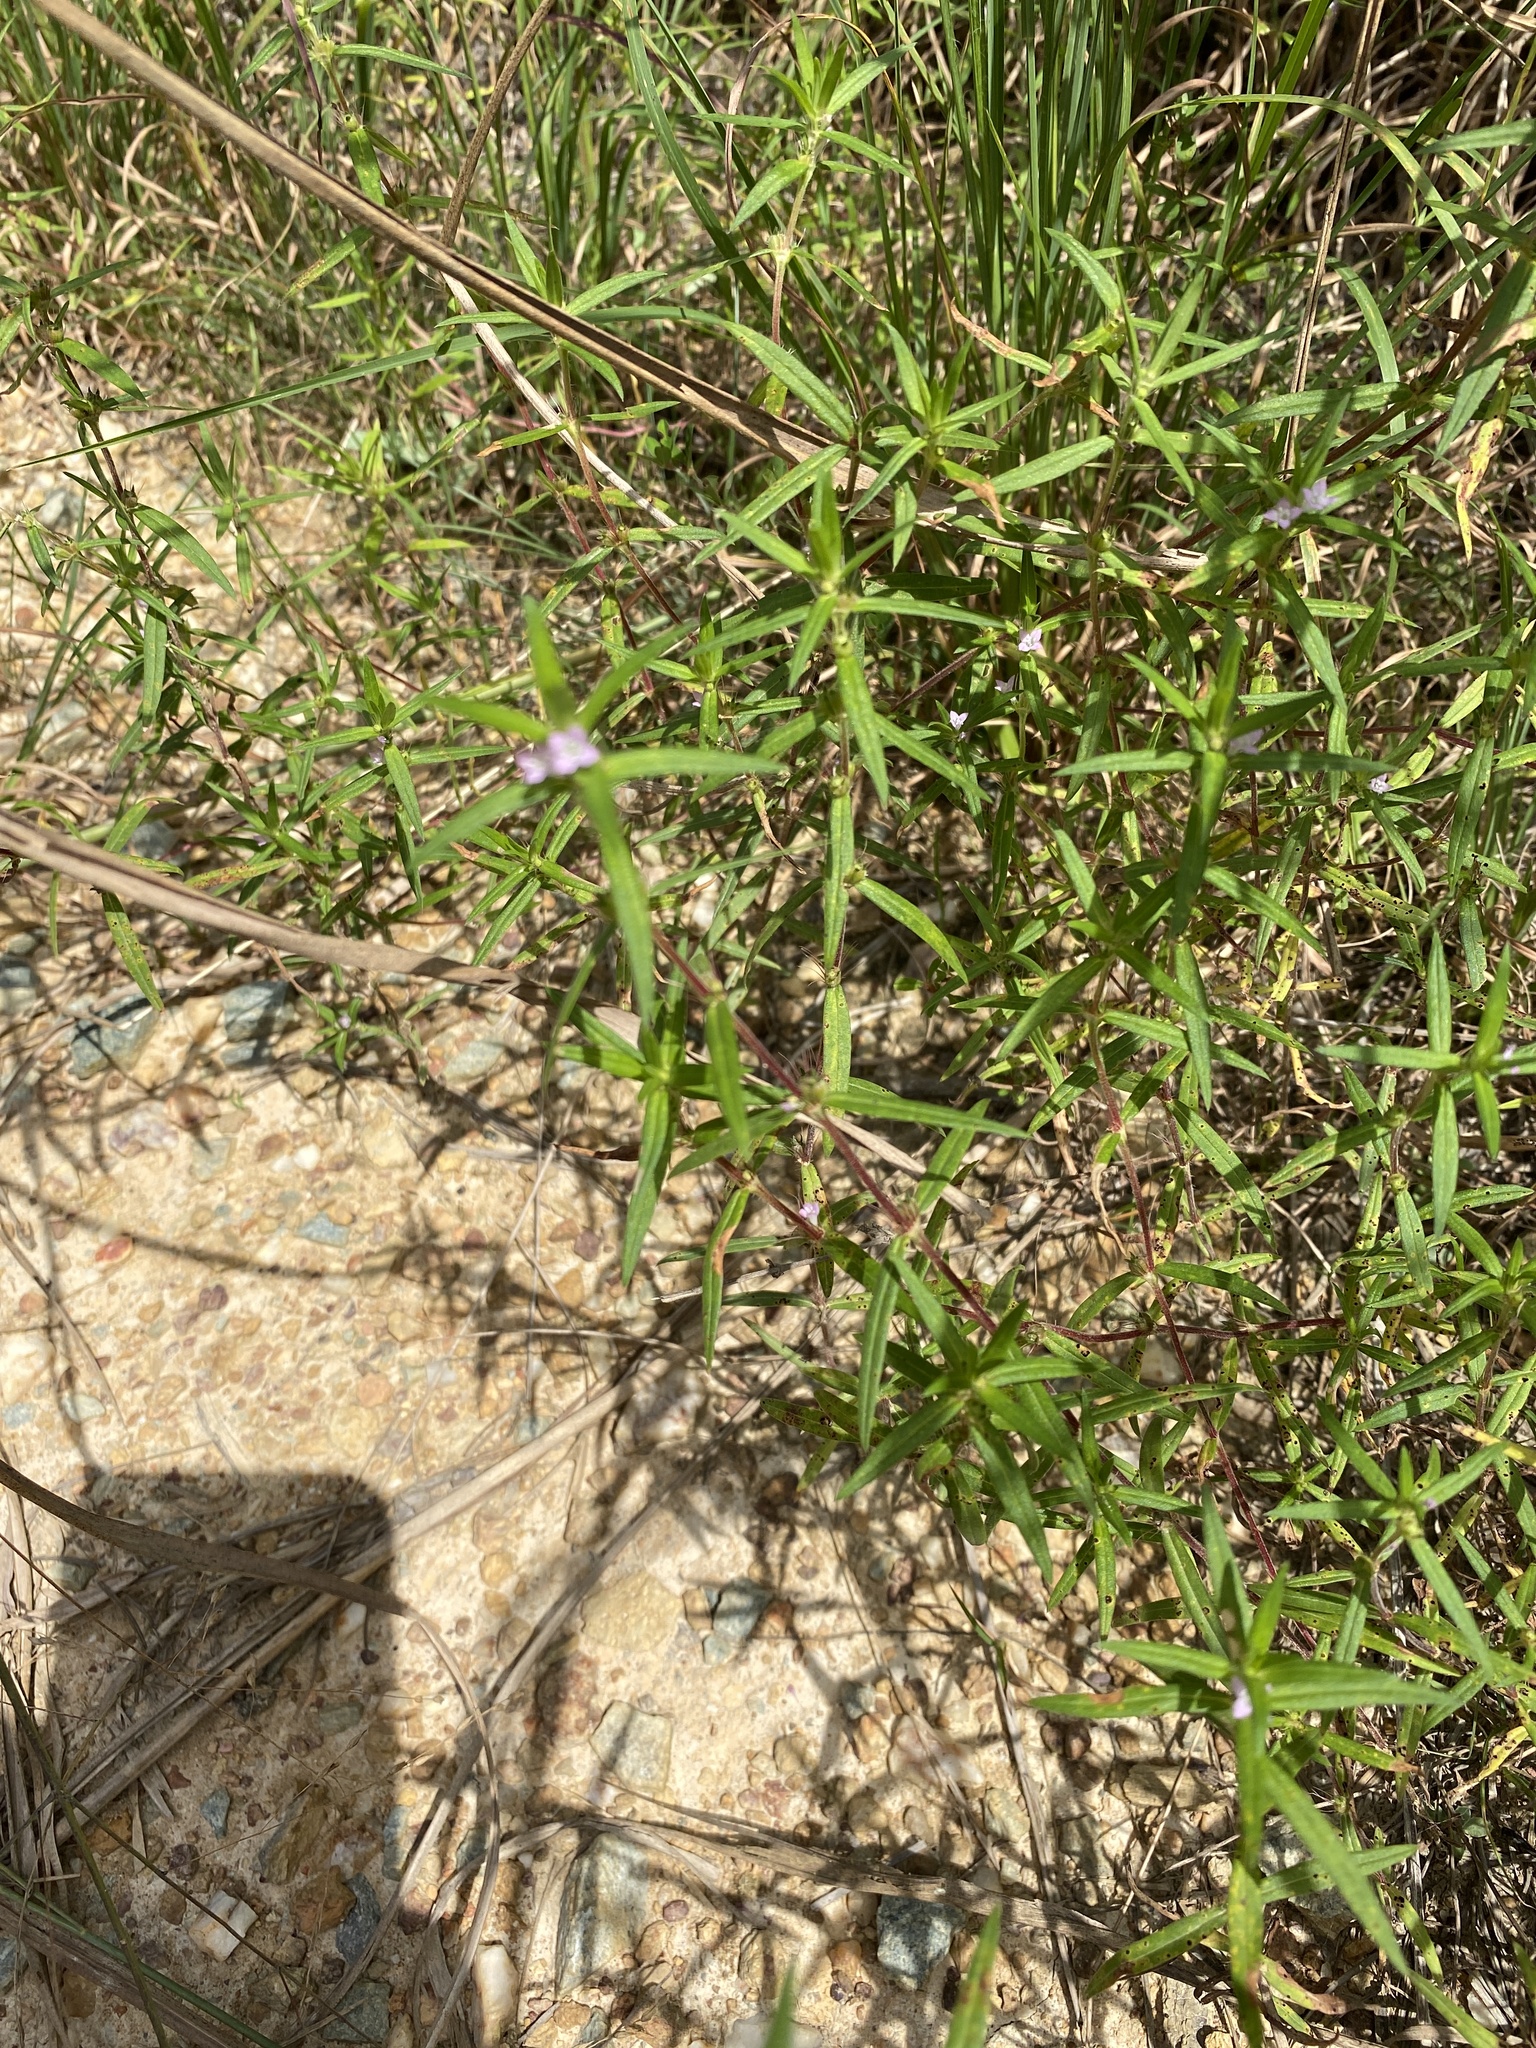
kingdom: Plantae
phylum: Tracheophyta
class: Magnoliopsida
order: Gentianales
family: Rubiaceae
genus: Hexasepalum
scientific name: Hexasepalum teres
